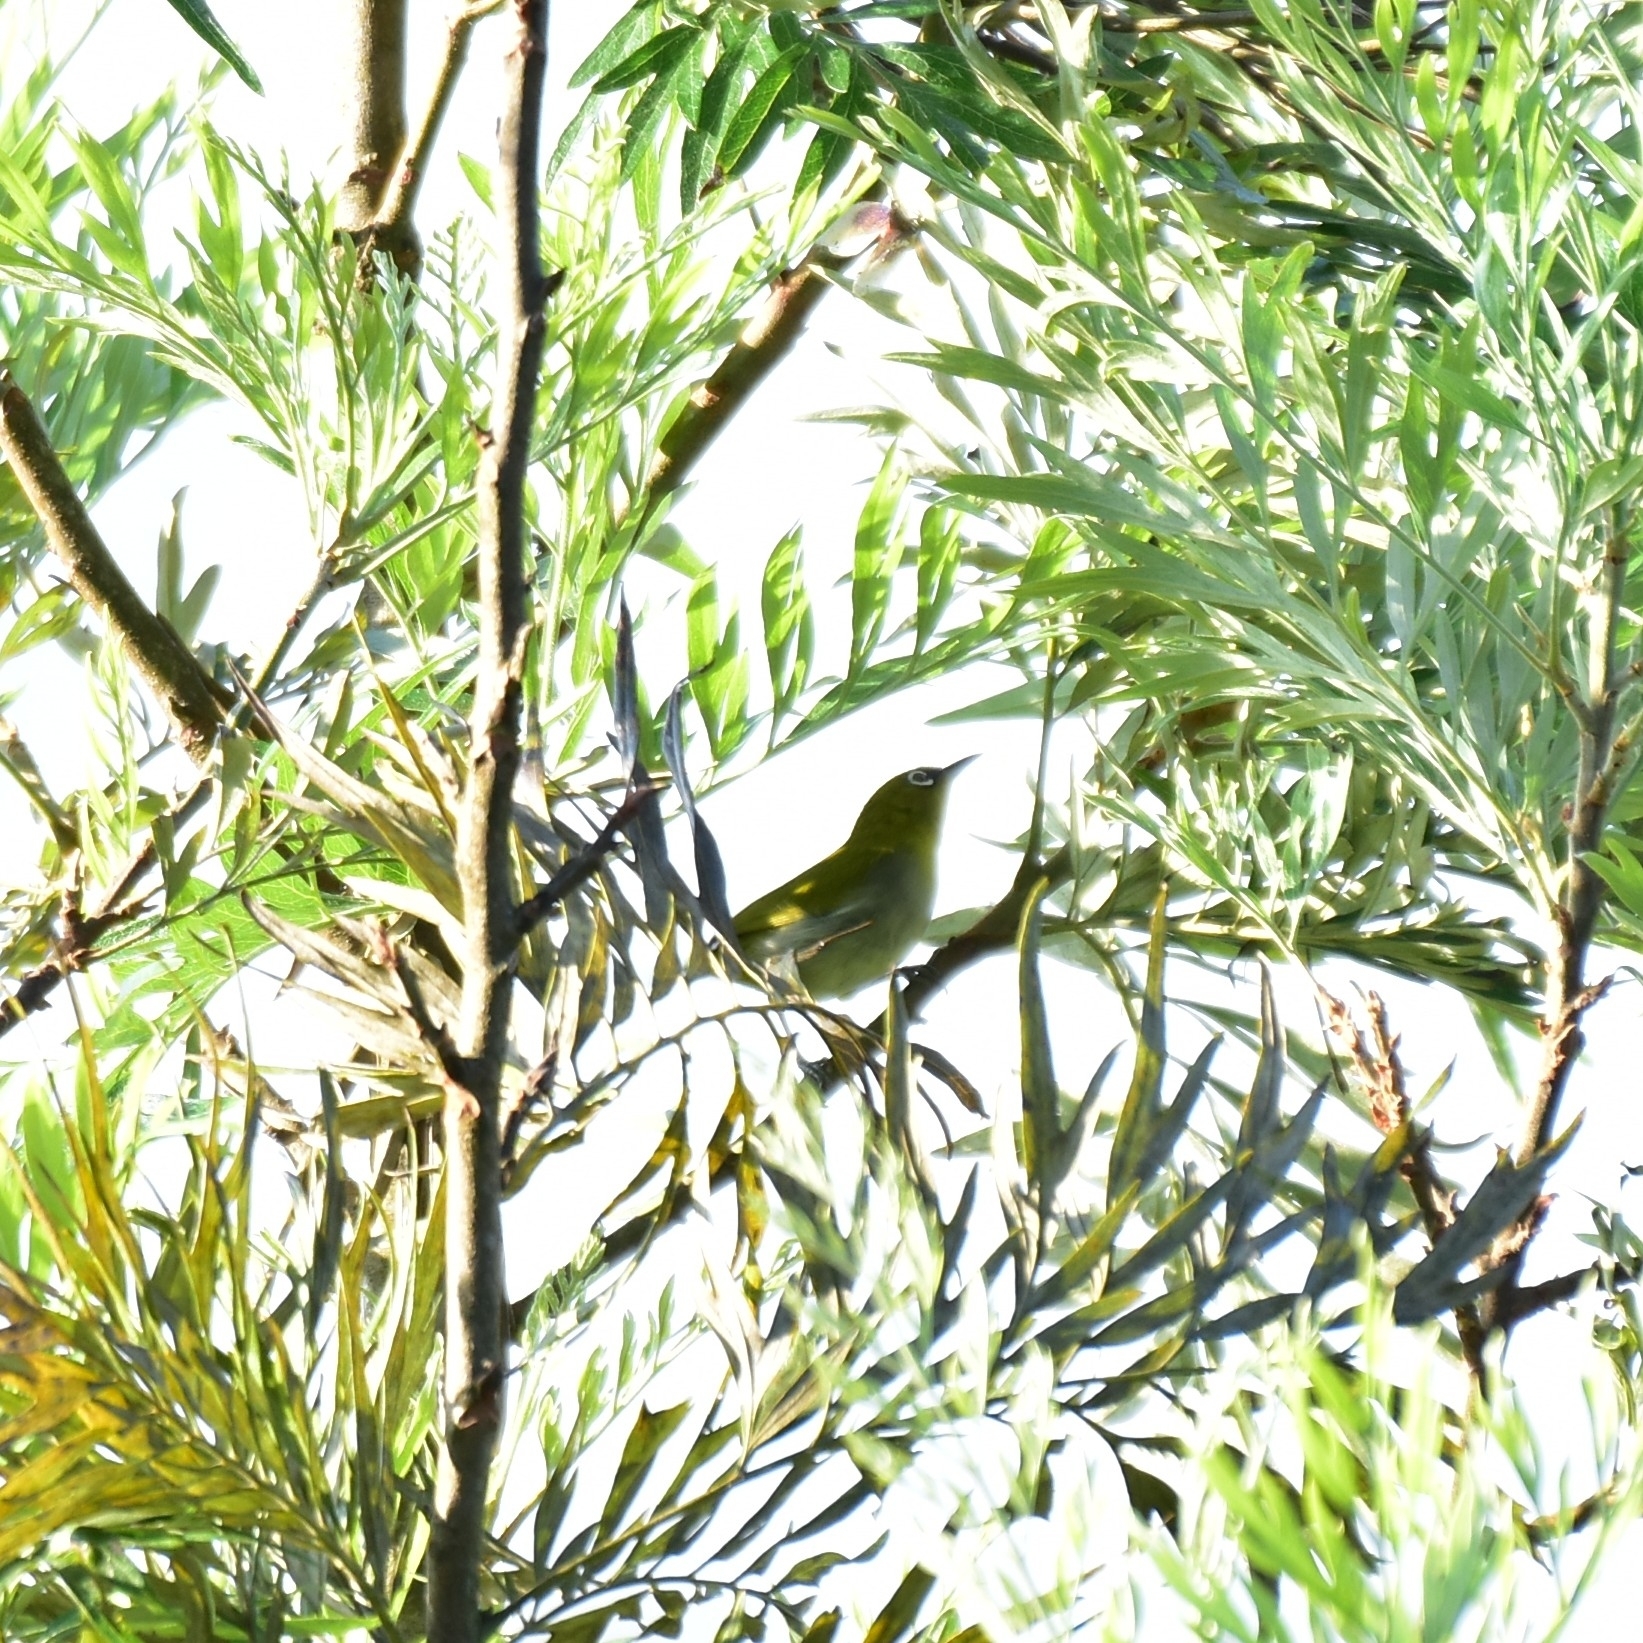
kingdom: Animalia
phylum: Chordata
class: Aves
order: Passeriformes
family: Zosteropidae
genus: Zosterops
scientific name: Zosterops palpebrosus
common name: Oriental white-eye
